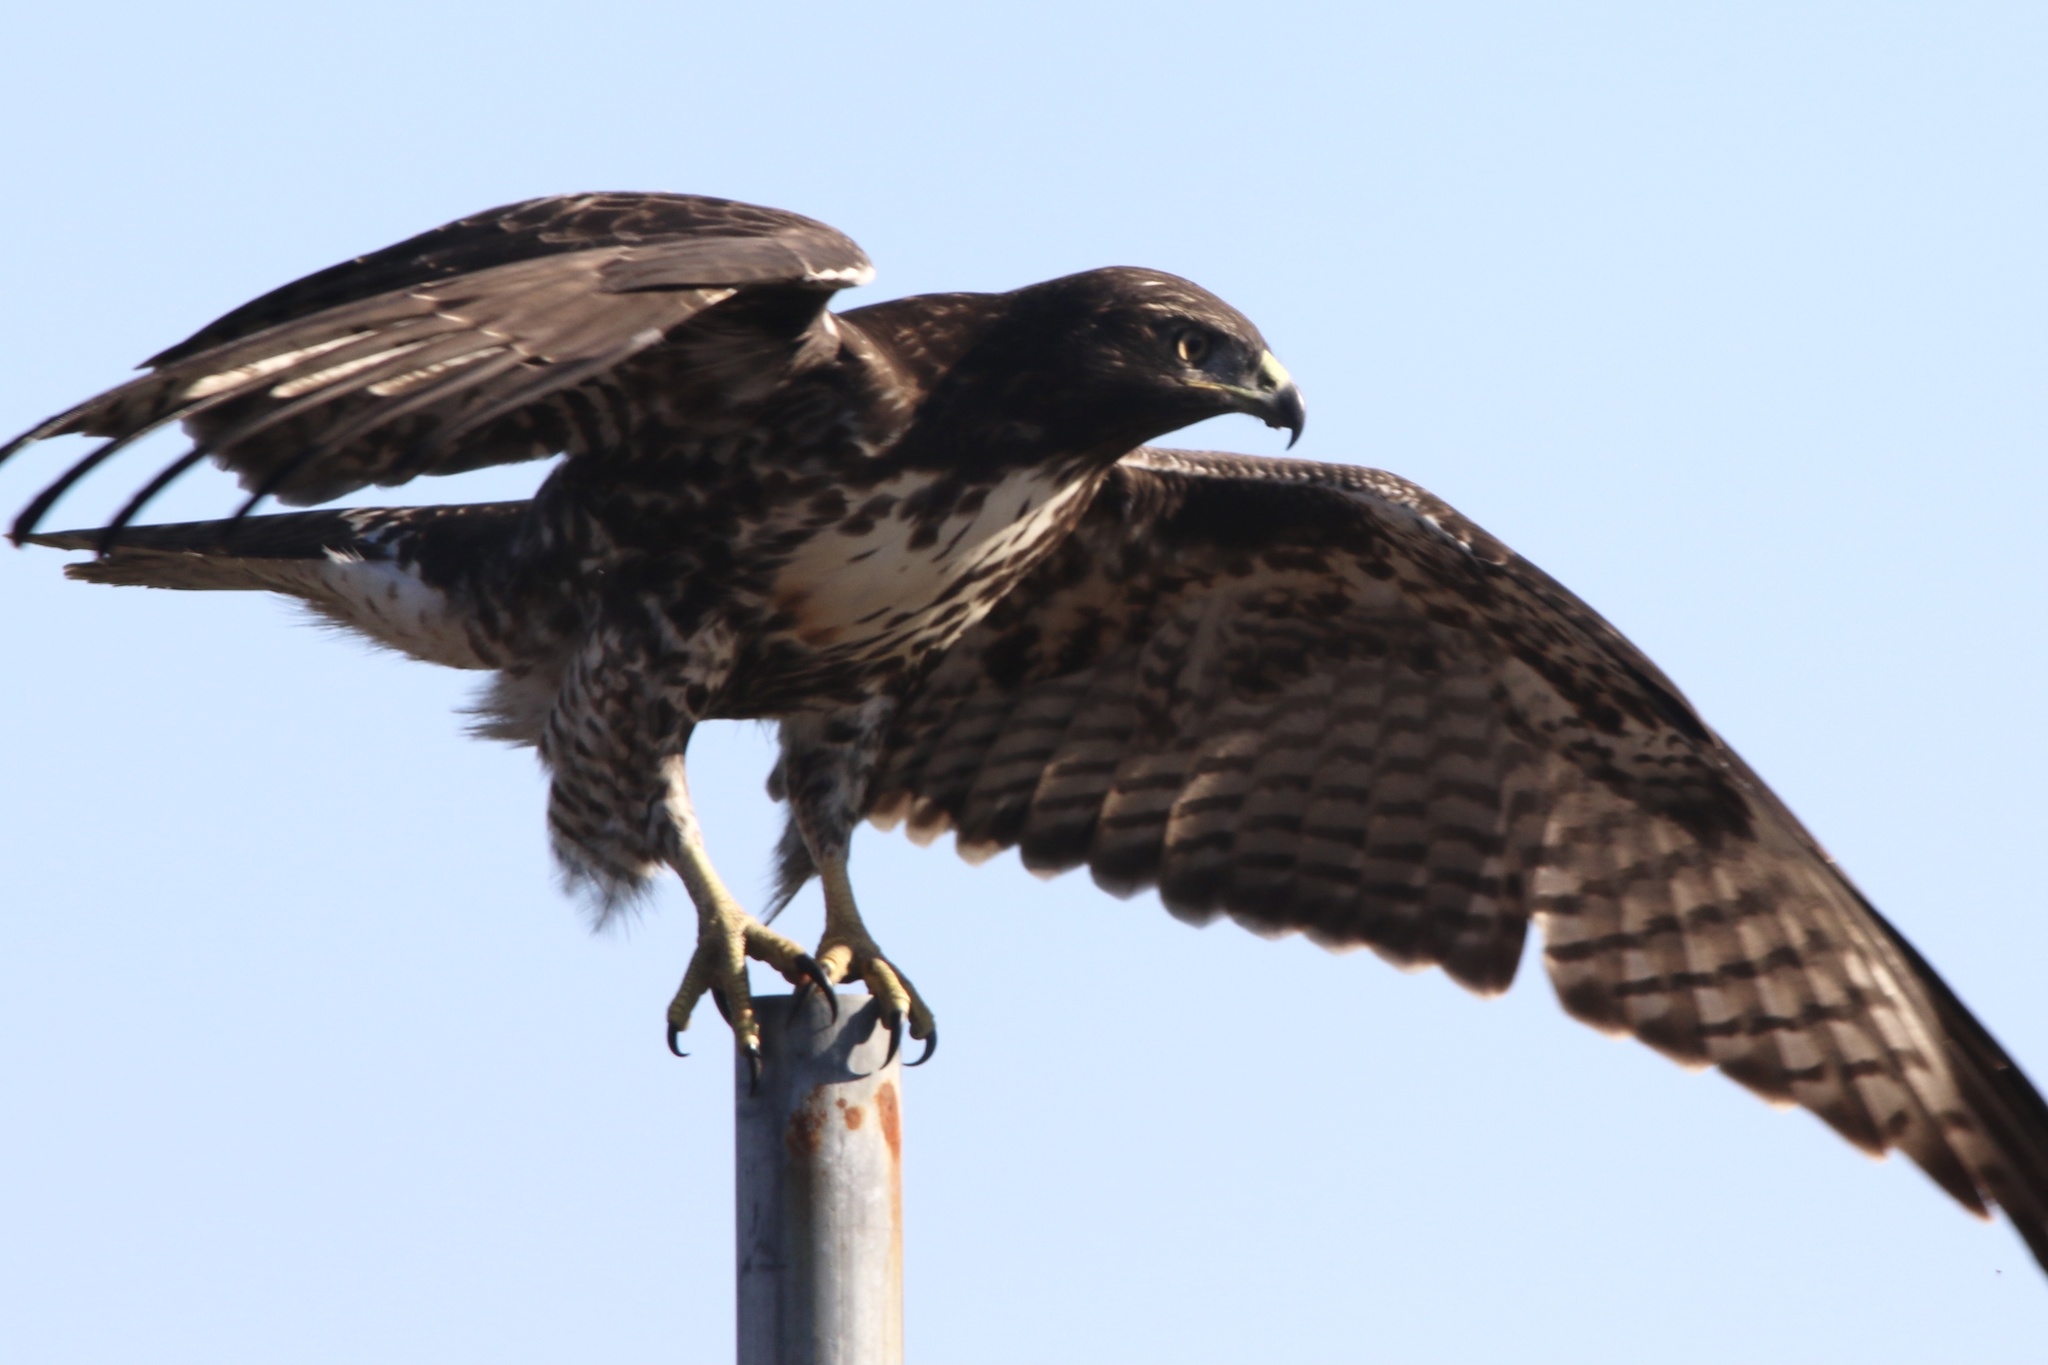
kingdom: Animalia
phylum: Chordata
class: Aves
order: Accipitriformes
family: Accipitridae
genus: Buteo
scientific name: Buteo jamaicensis
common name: Red-tailed hawk
